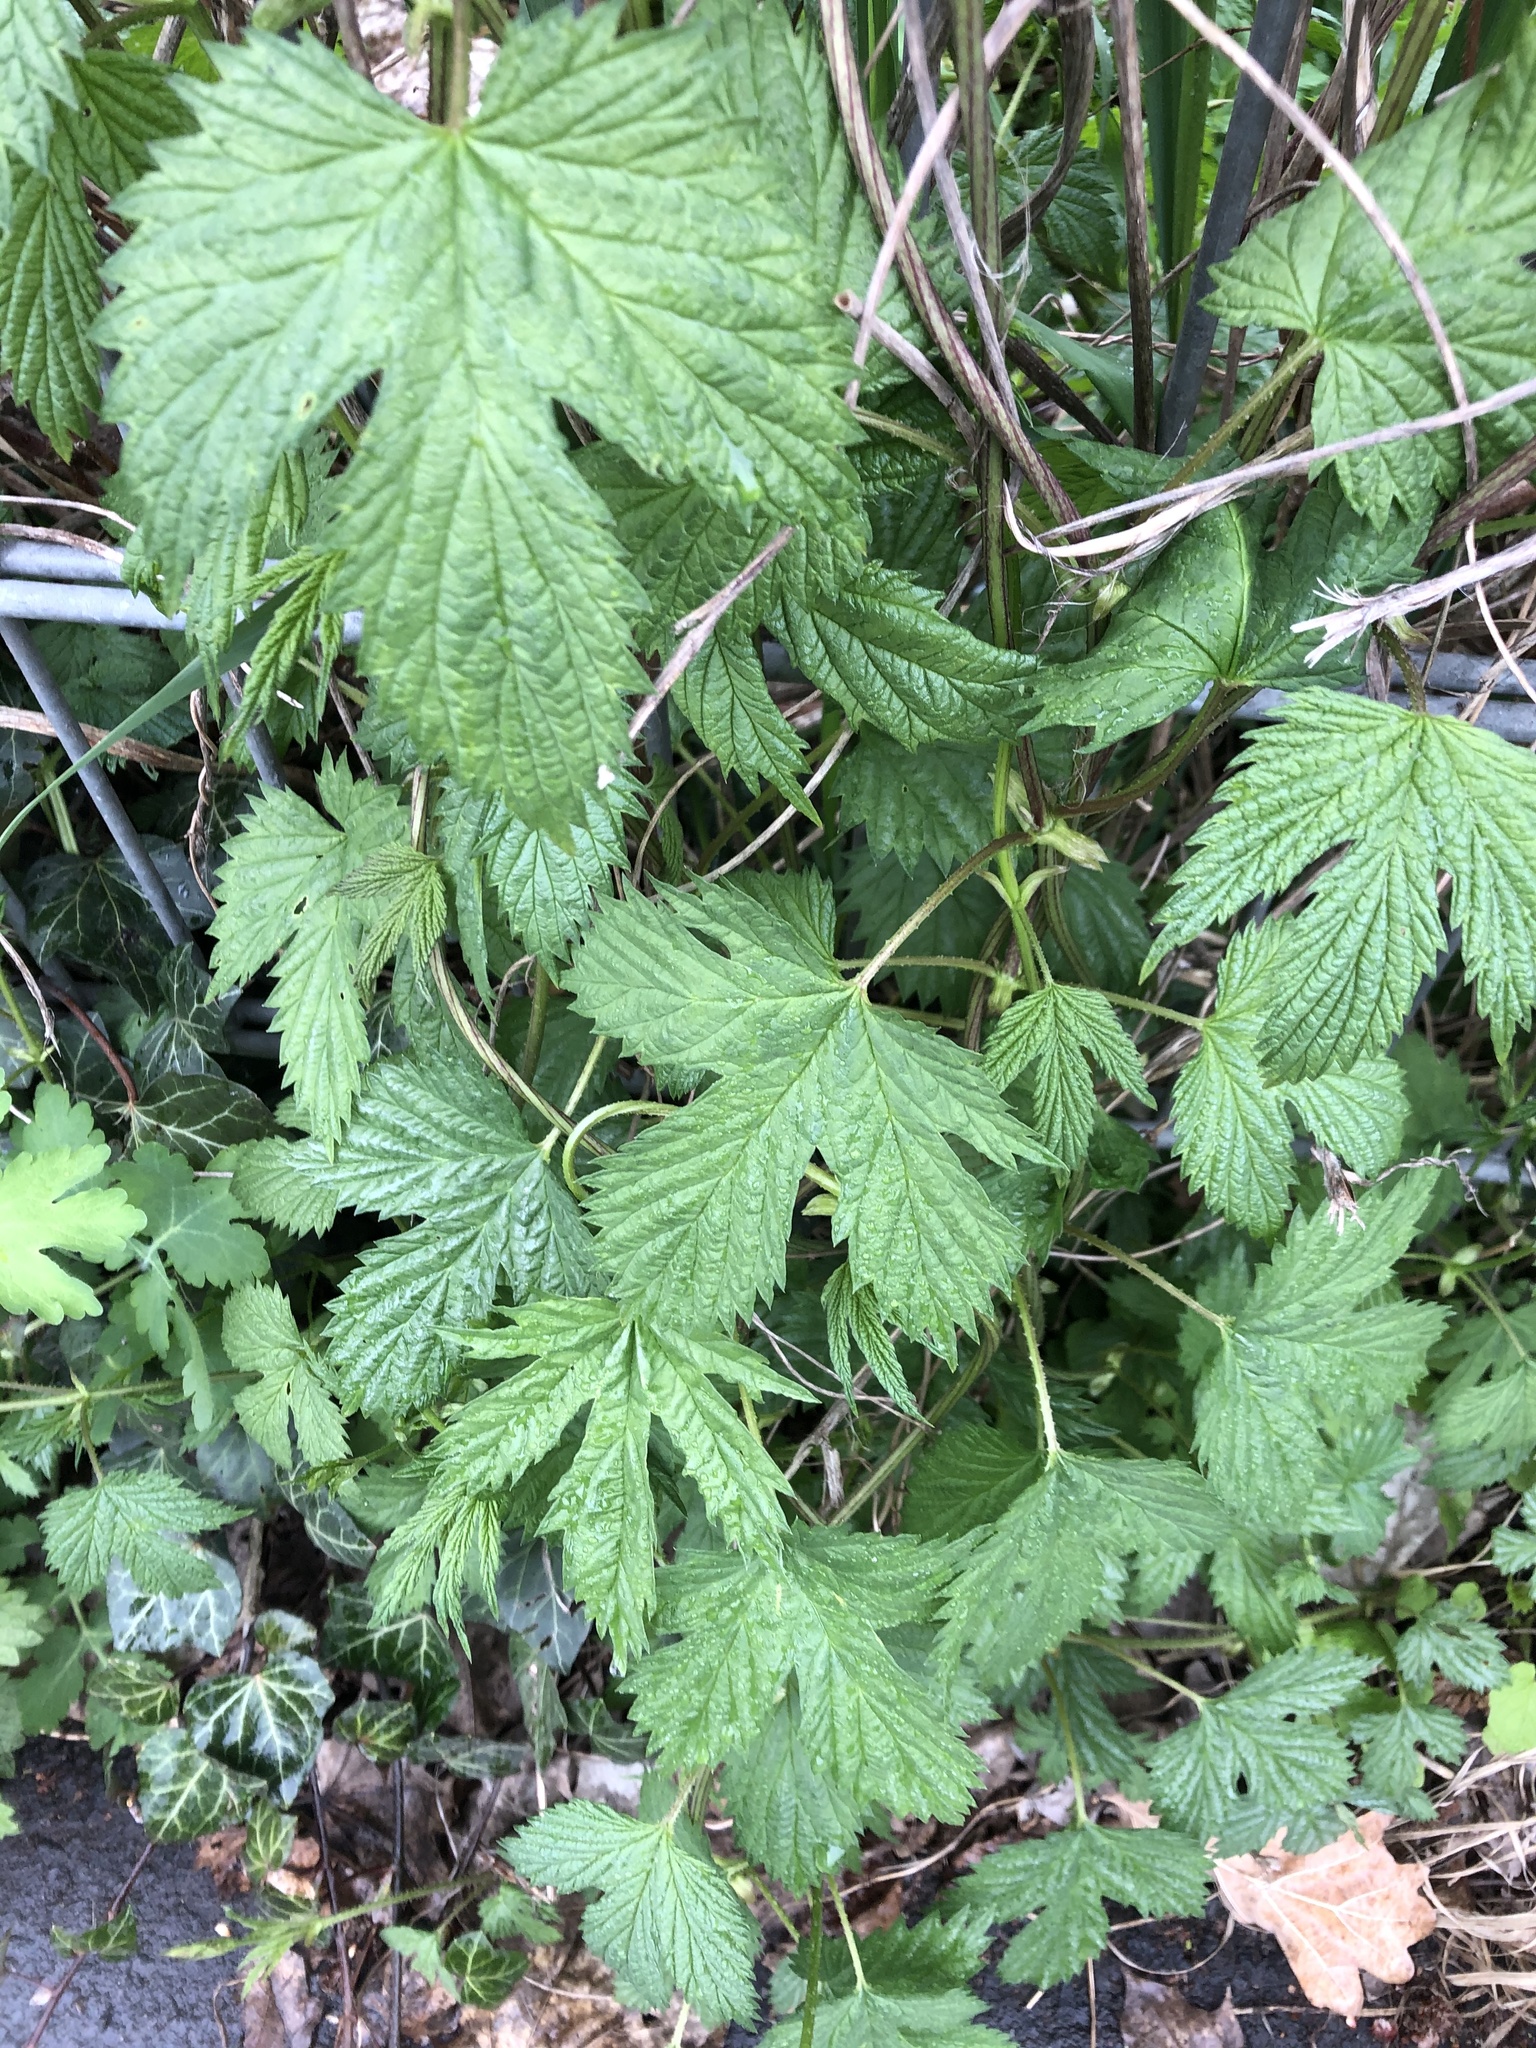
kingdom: Plantae
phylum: Tracheophyta
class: Magnoliopsida
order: Rosales
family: Cannabaceae
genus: Humulus
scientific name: Humulus lupulus
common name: Hop
